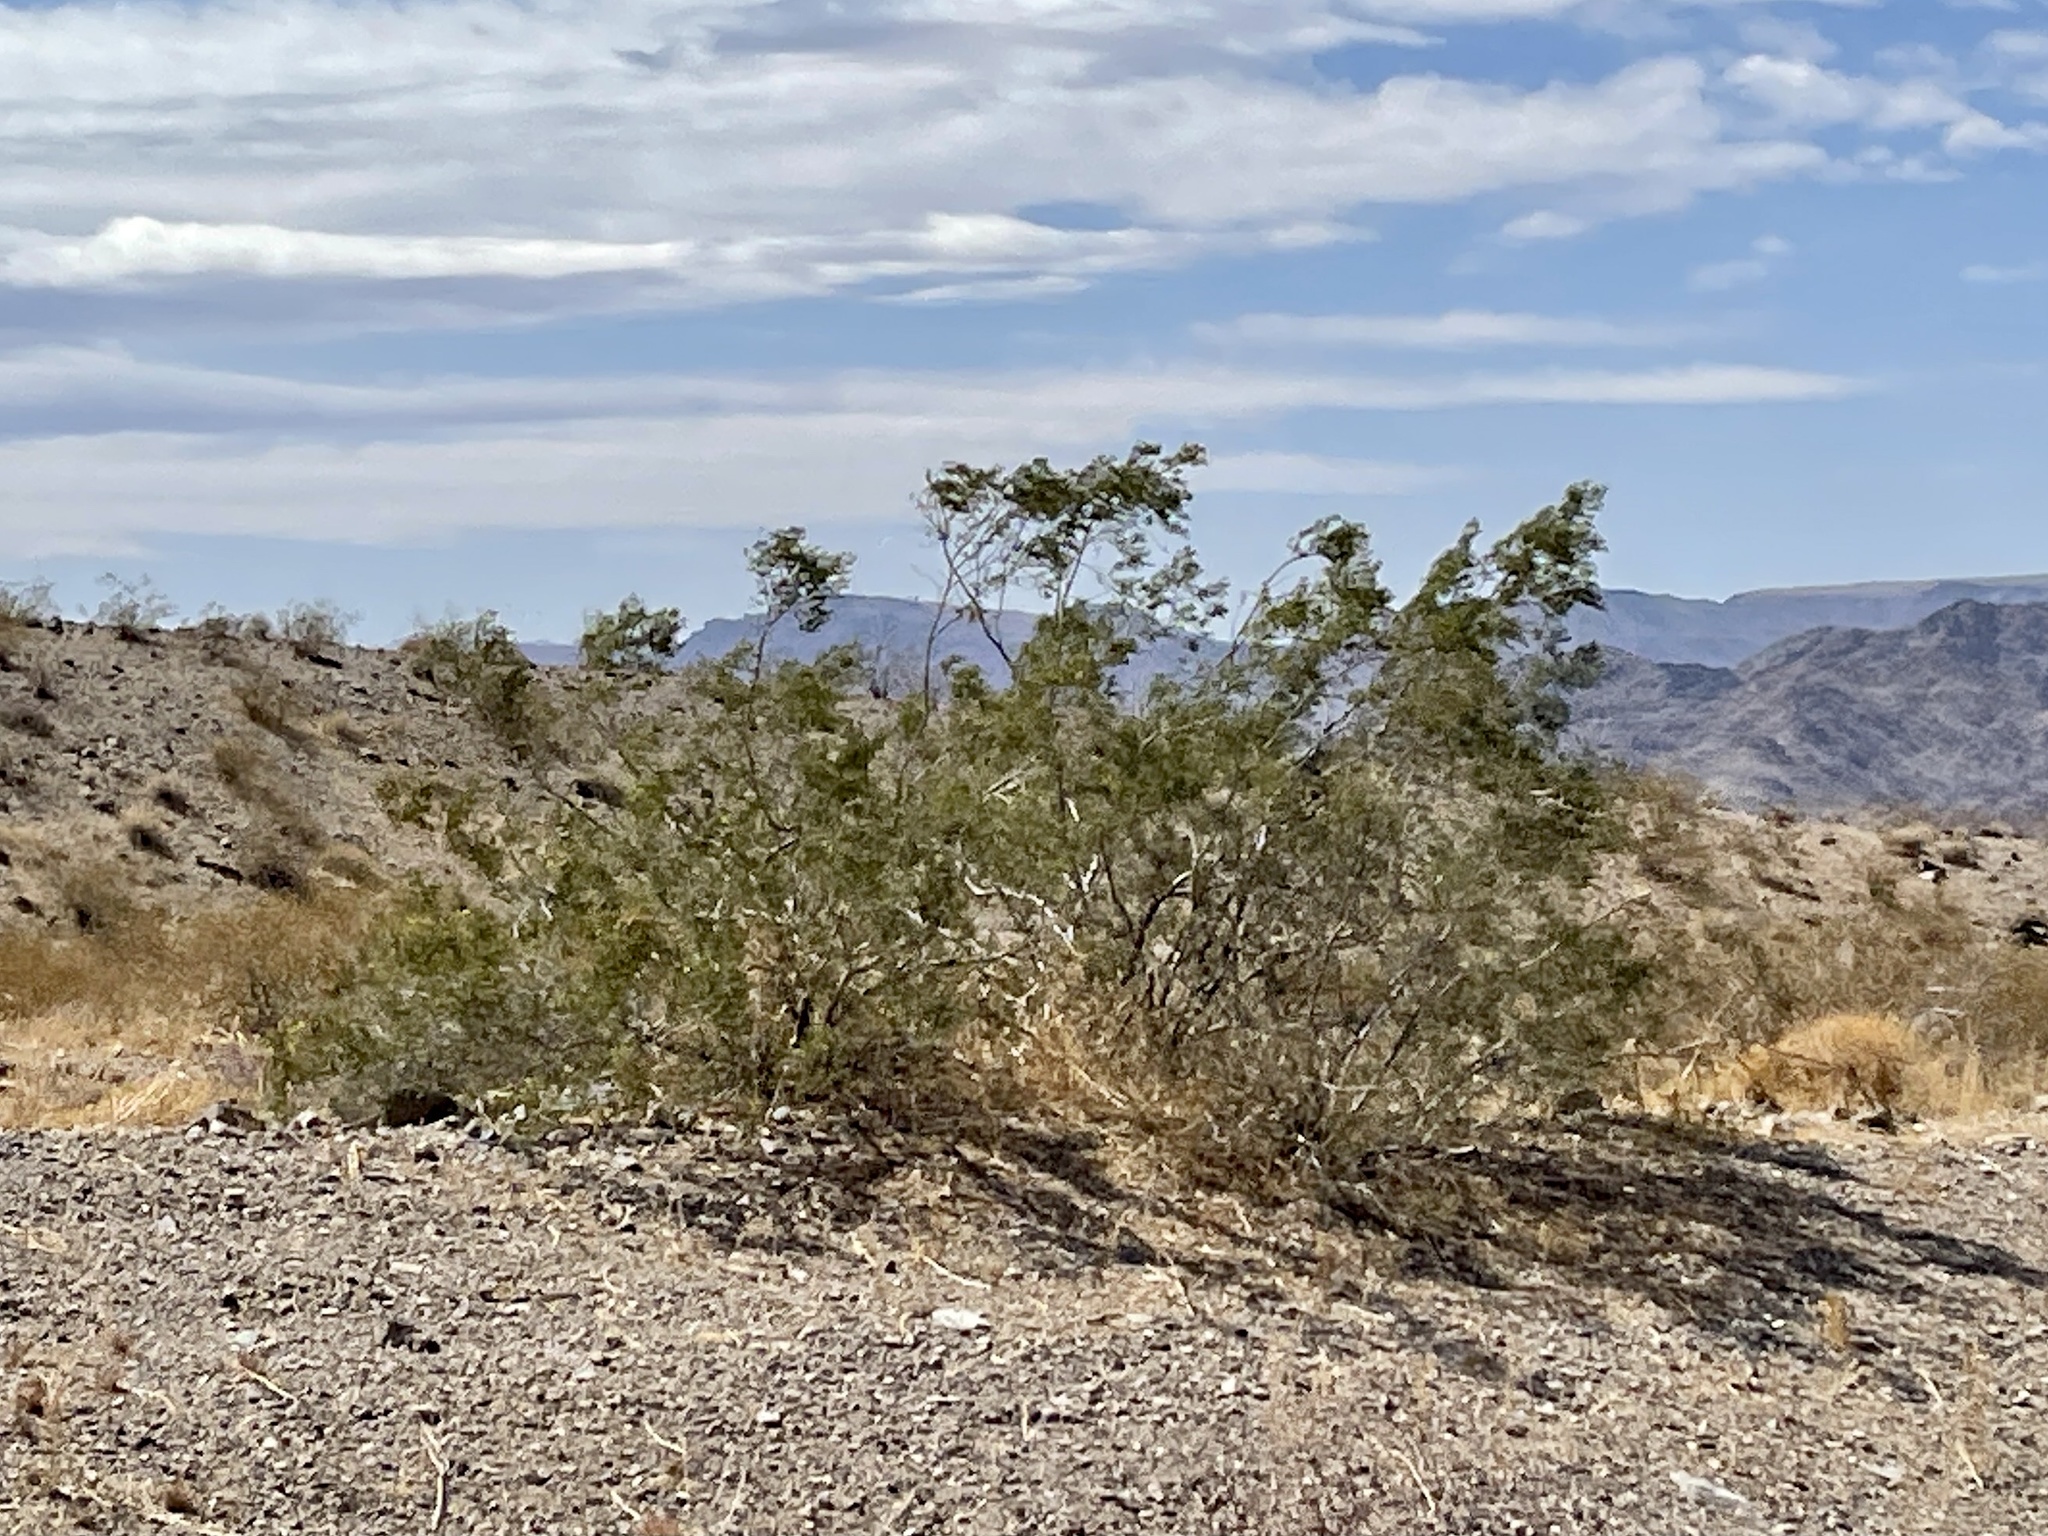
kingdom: Plantae
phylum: Tracheophyta
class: Magnoliopsida
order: Zygophyllales
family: Zygophyllaceae
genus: Larrea
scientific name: Larrea tridentata
